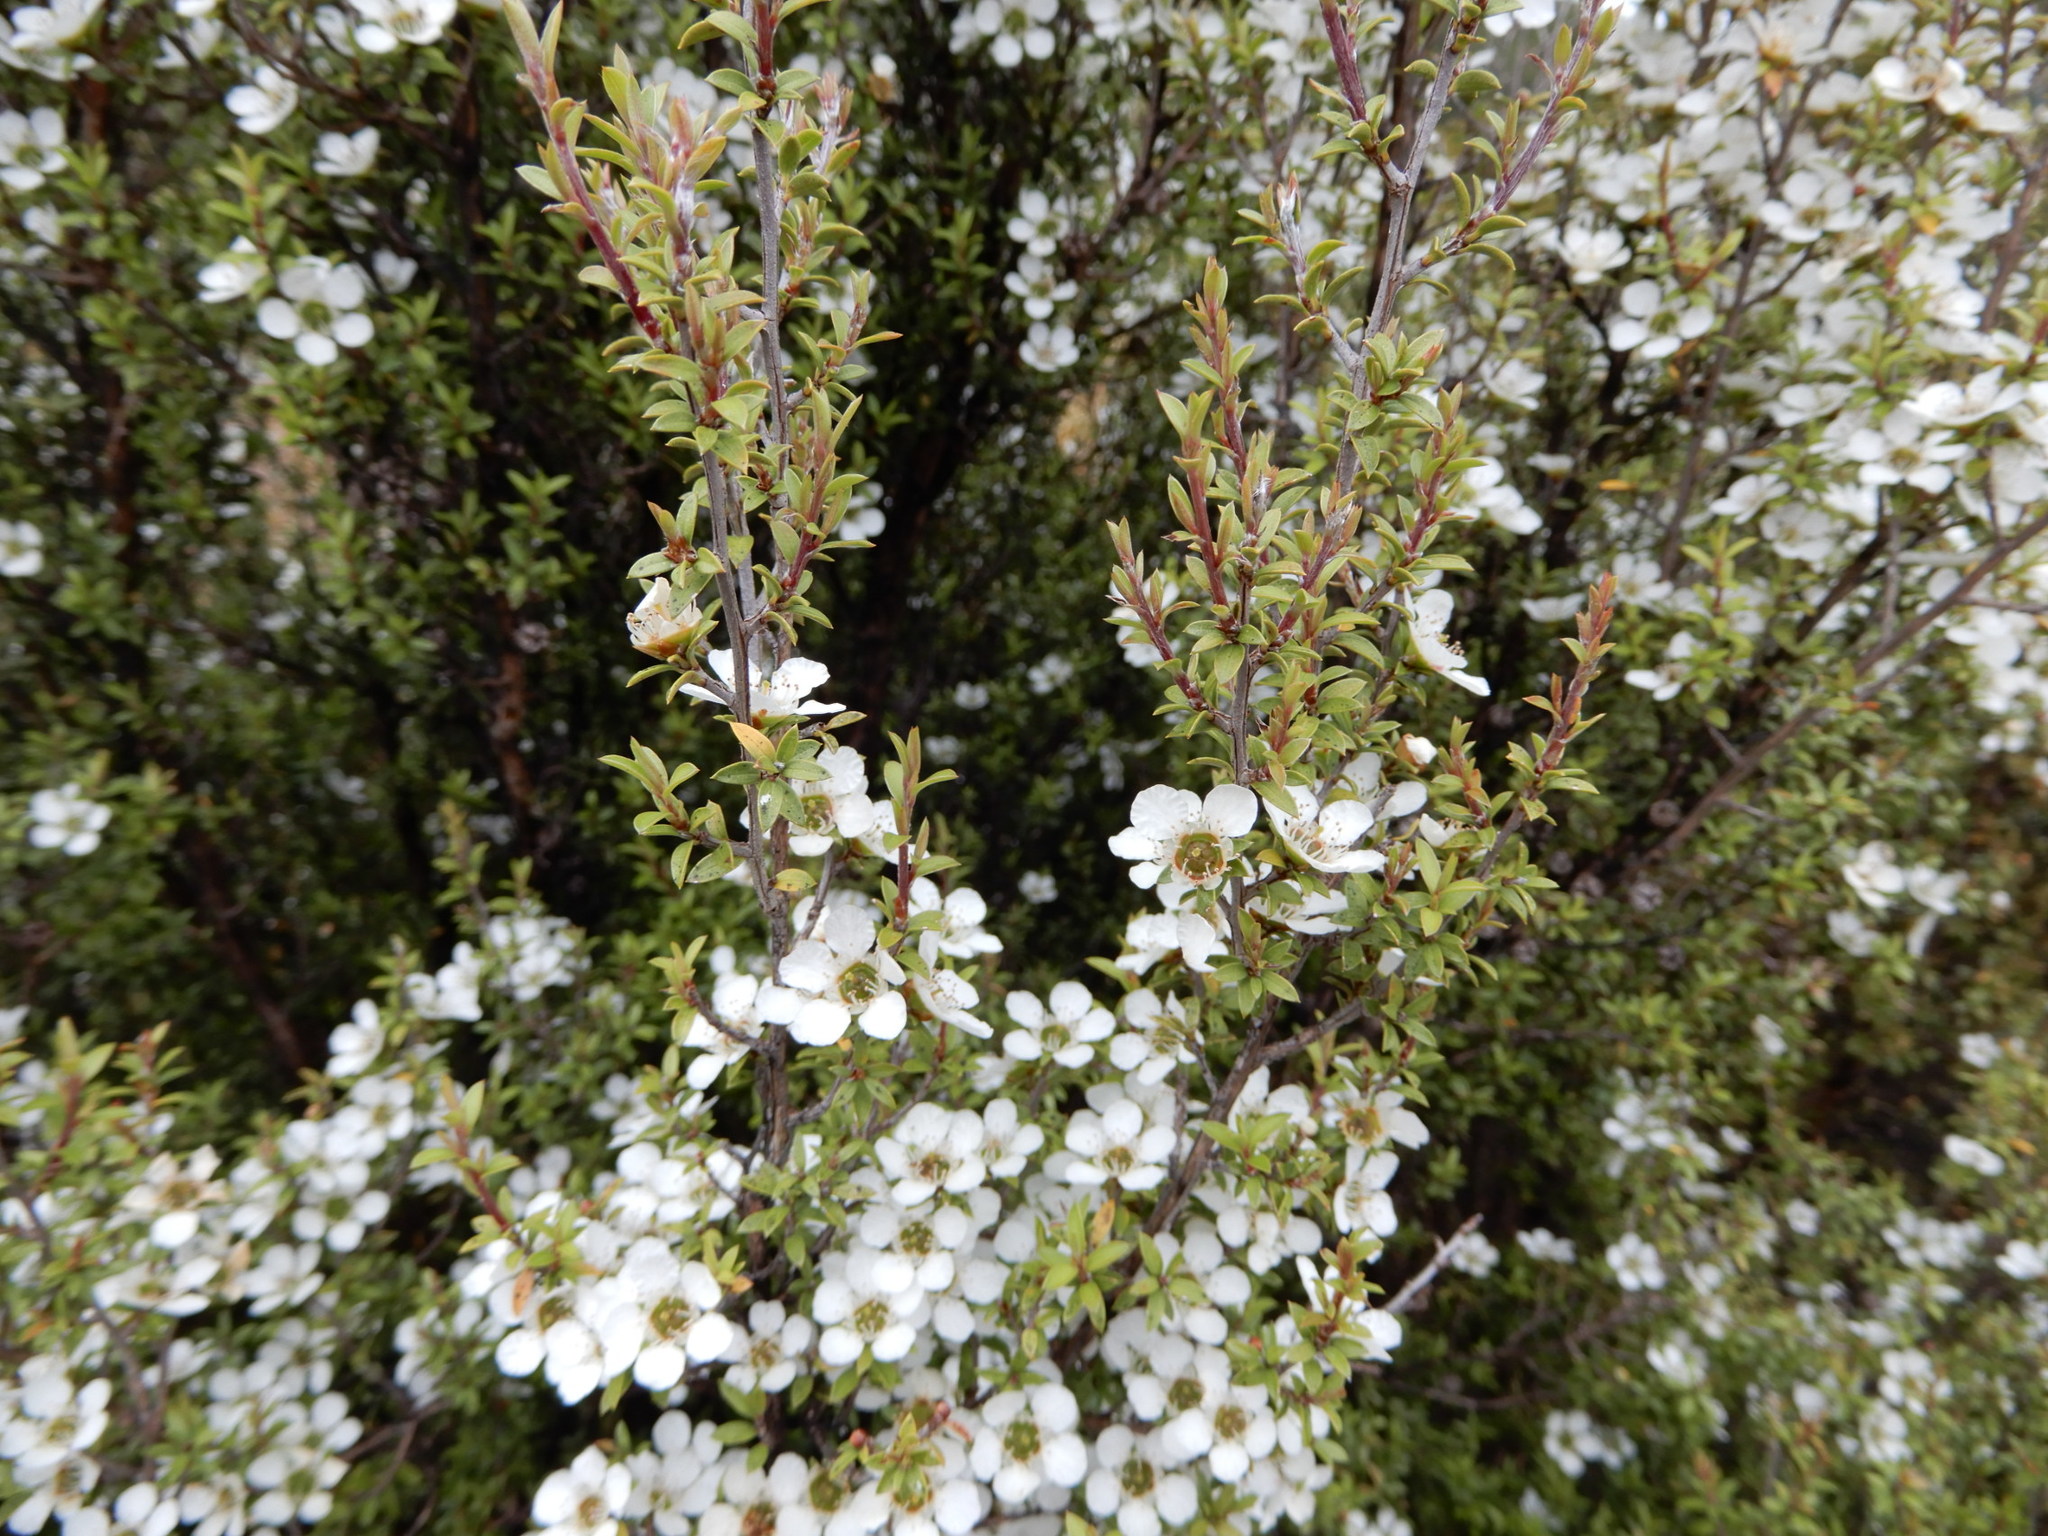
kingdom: Plantae
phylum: Tracheophyta
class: Magnoliopsida
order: Myrtales
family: Myrtaceae
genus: Leptospermum
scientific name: Leptospermum scoparium
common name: Broom tea-tree
